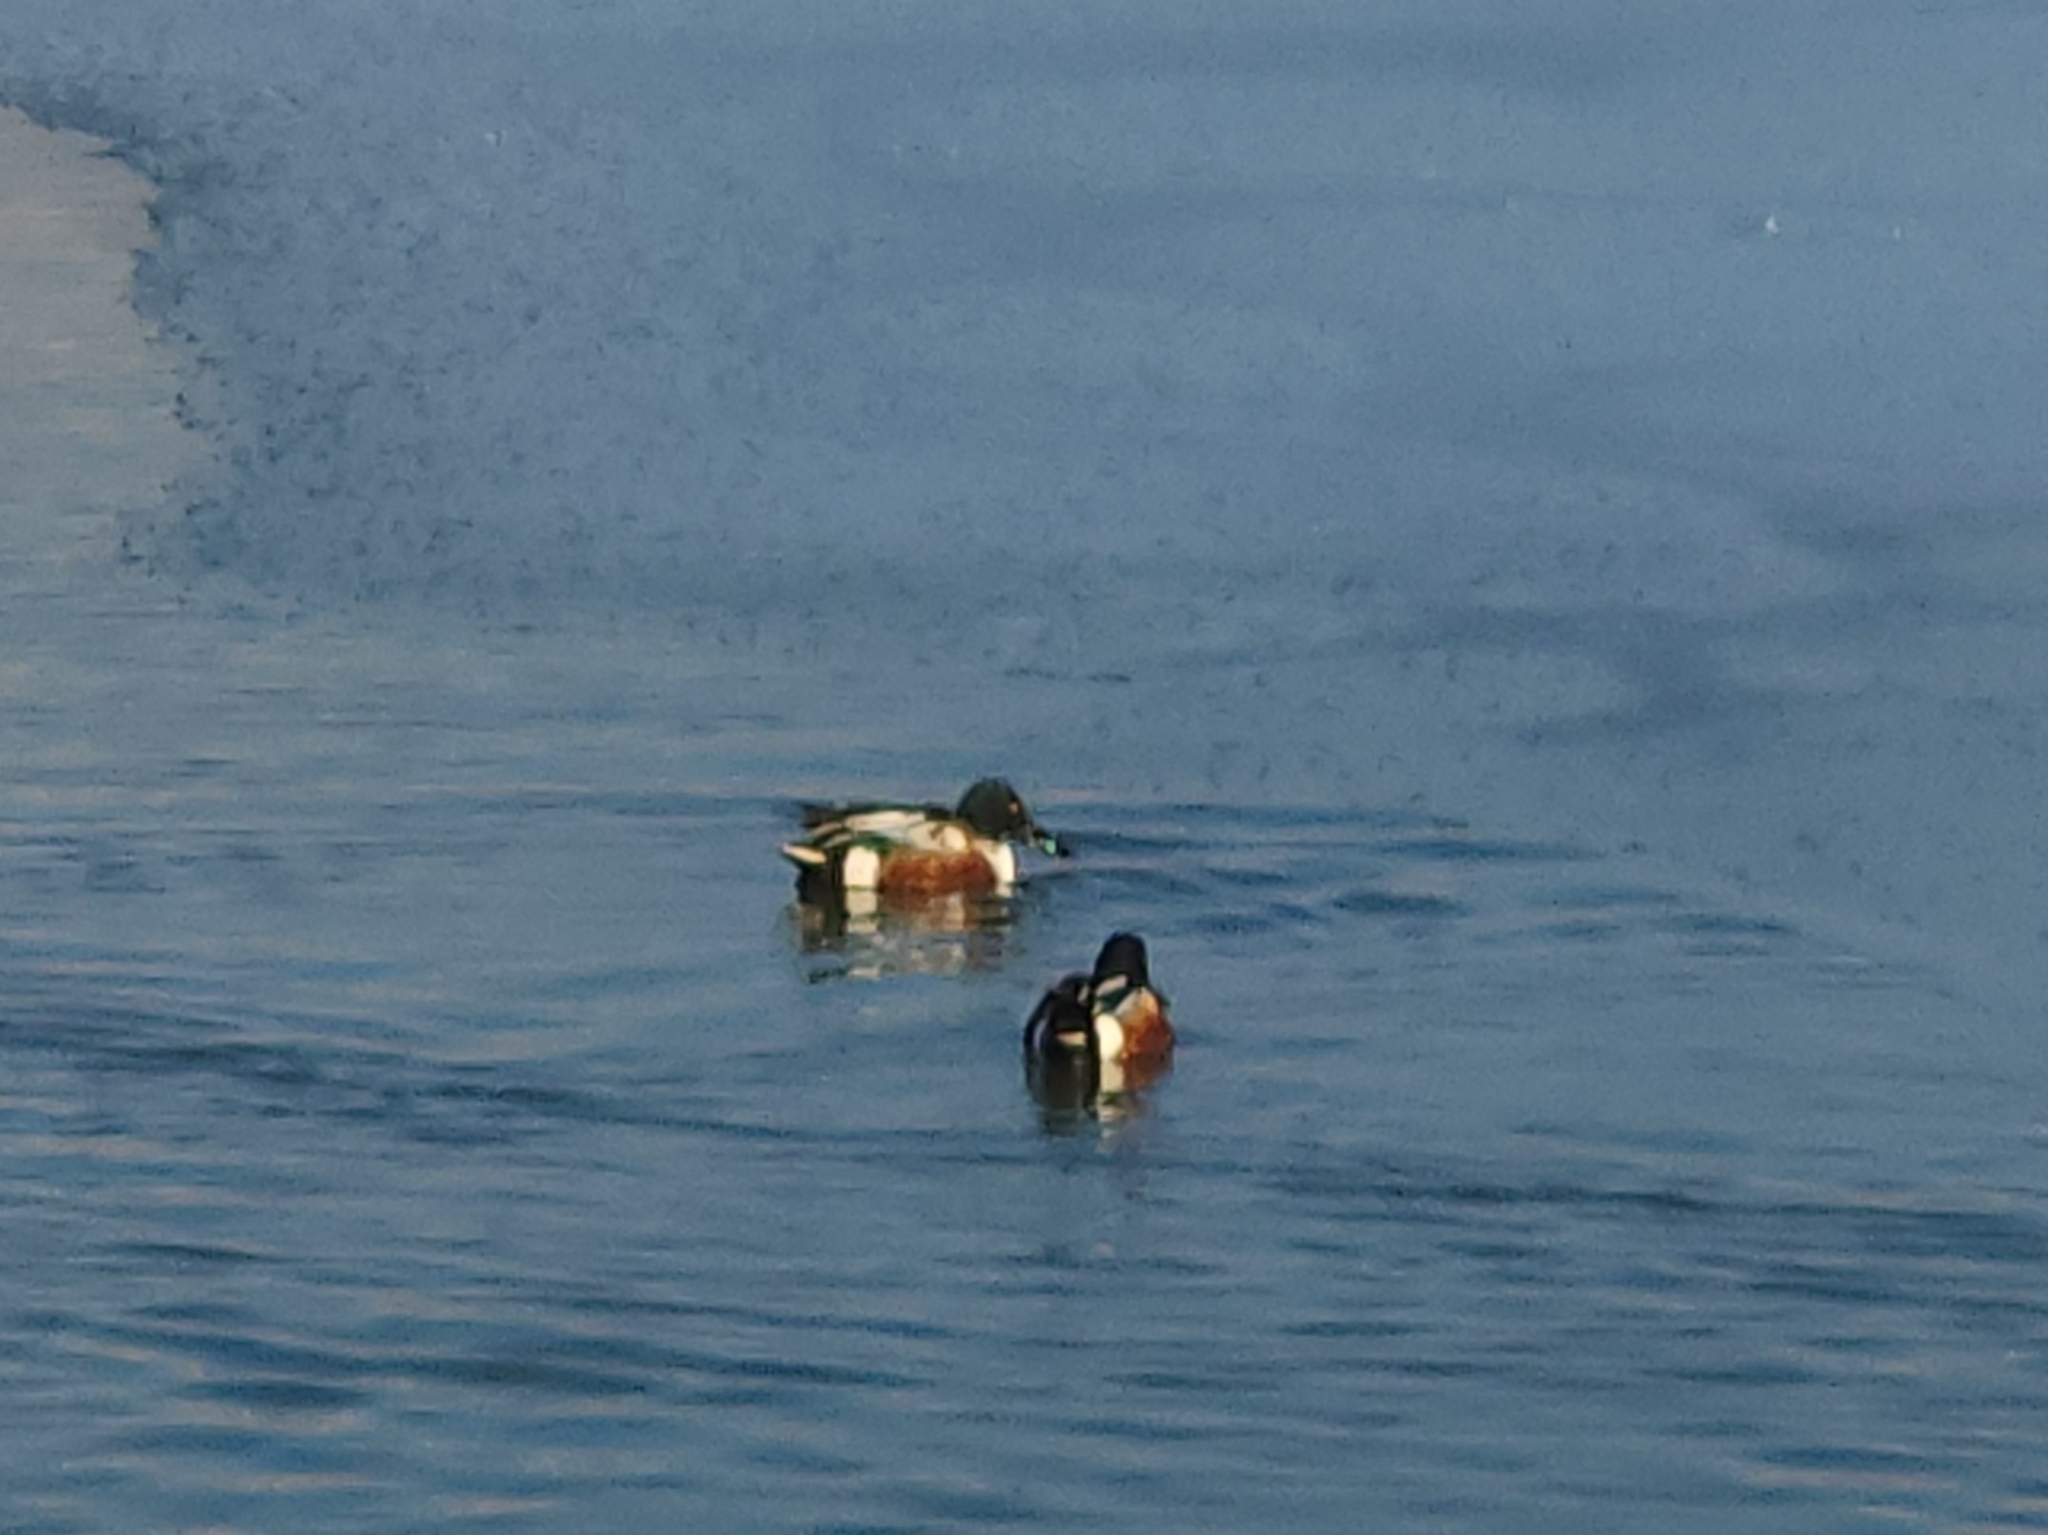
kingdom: Animalia
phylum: Chordata
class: Aves
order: Anseriformes
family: Anatidae
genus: Spatula
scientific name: Spatula clypeata
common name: Northern shoveler
